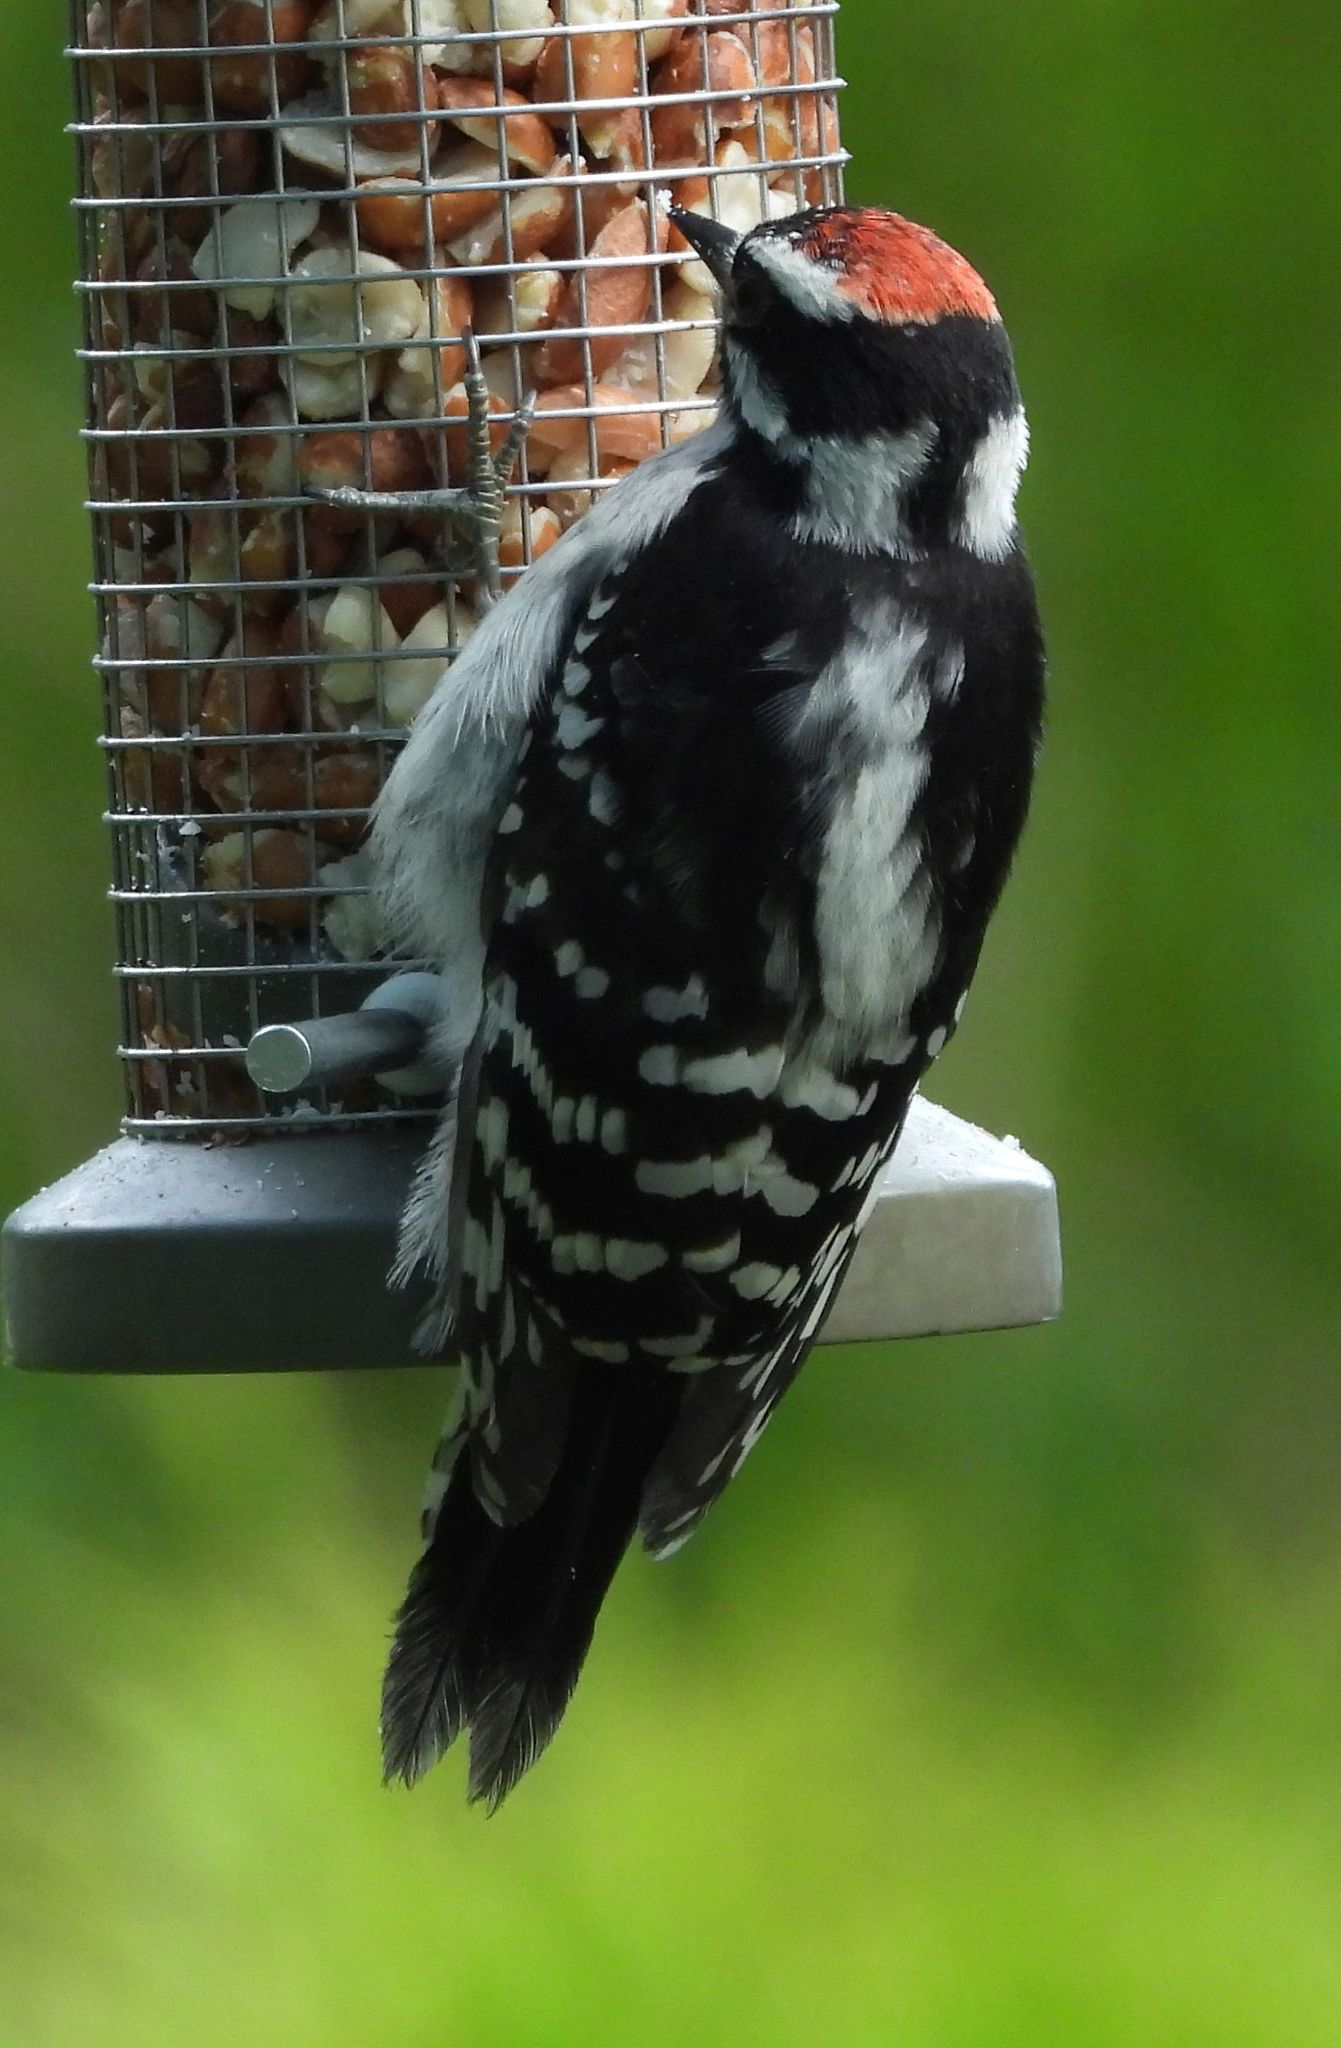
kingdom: Animalia
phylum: Chordata
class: Aves
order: Piciformes
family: Picidae
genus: Dryobates
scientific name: Dryobates pubescens
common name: Downy woodpecker
